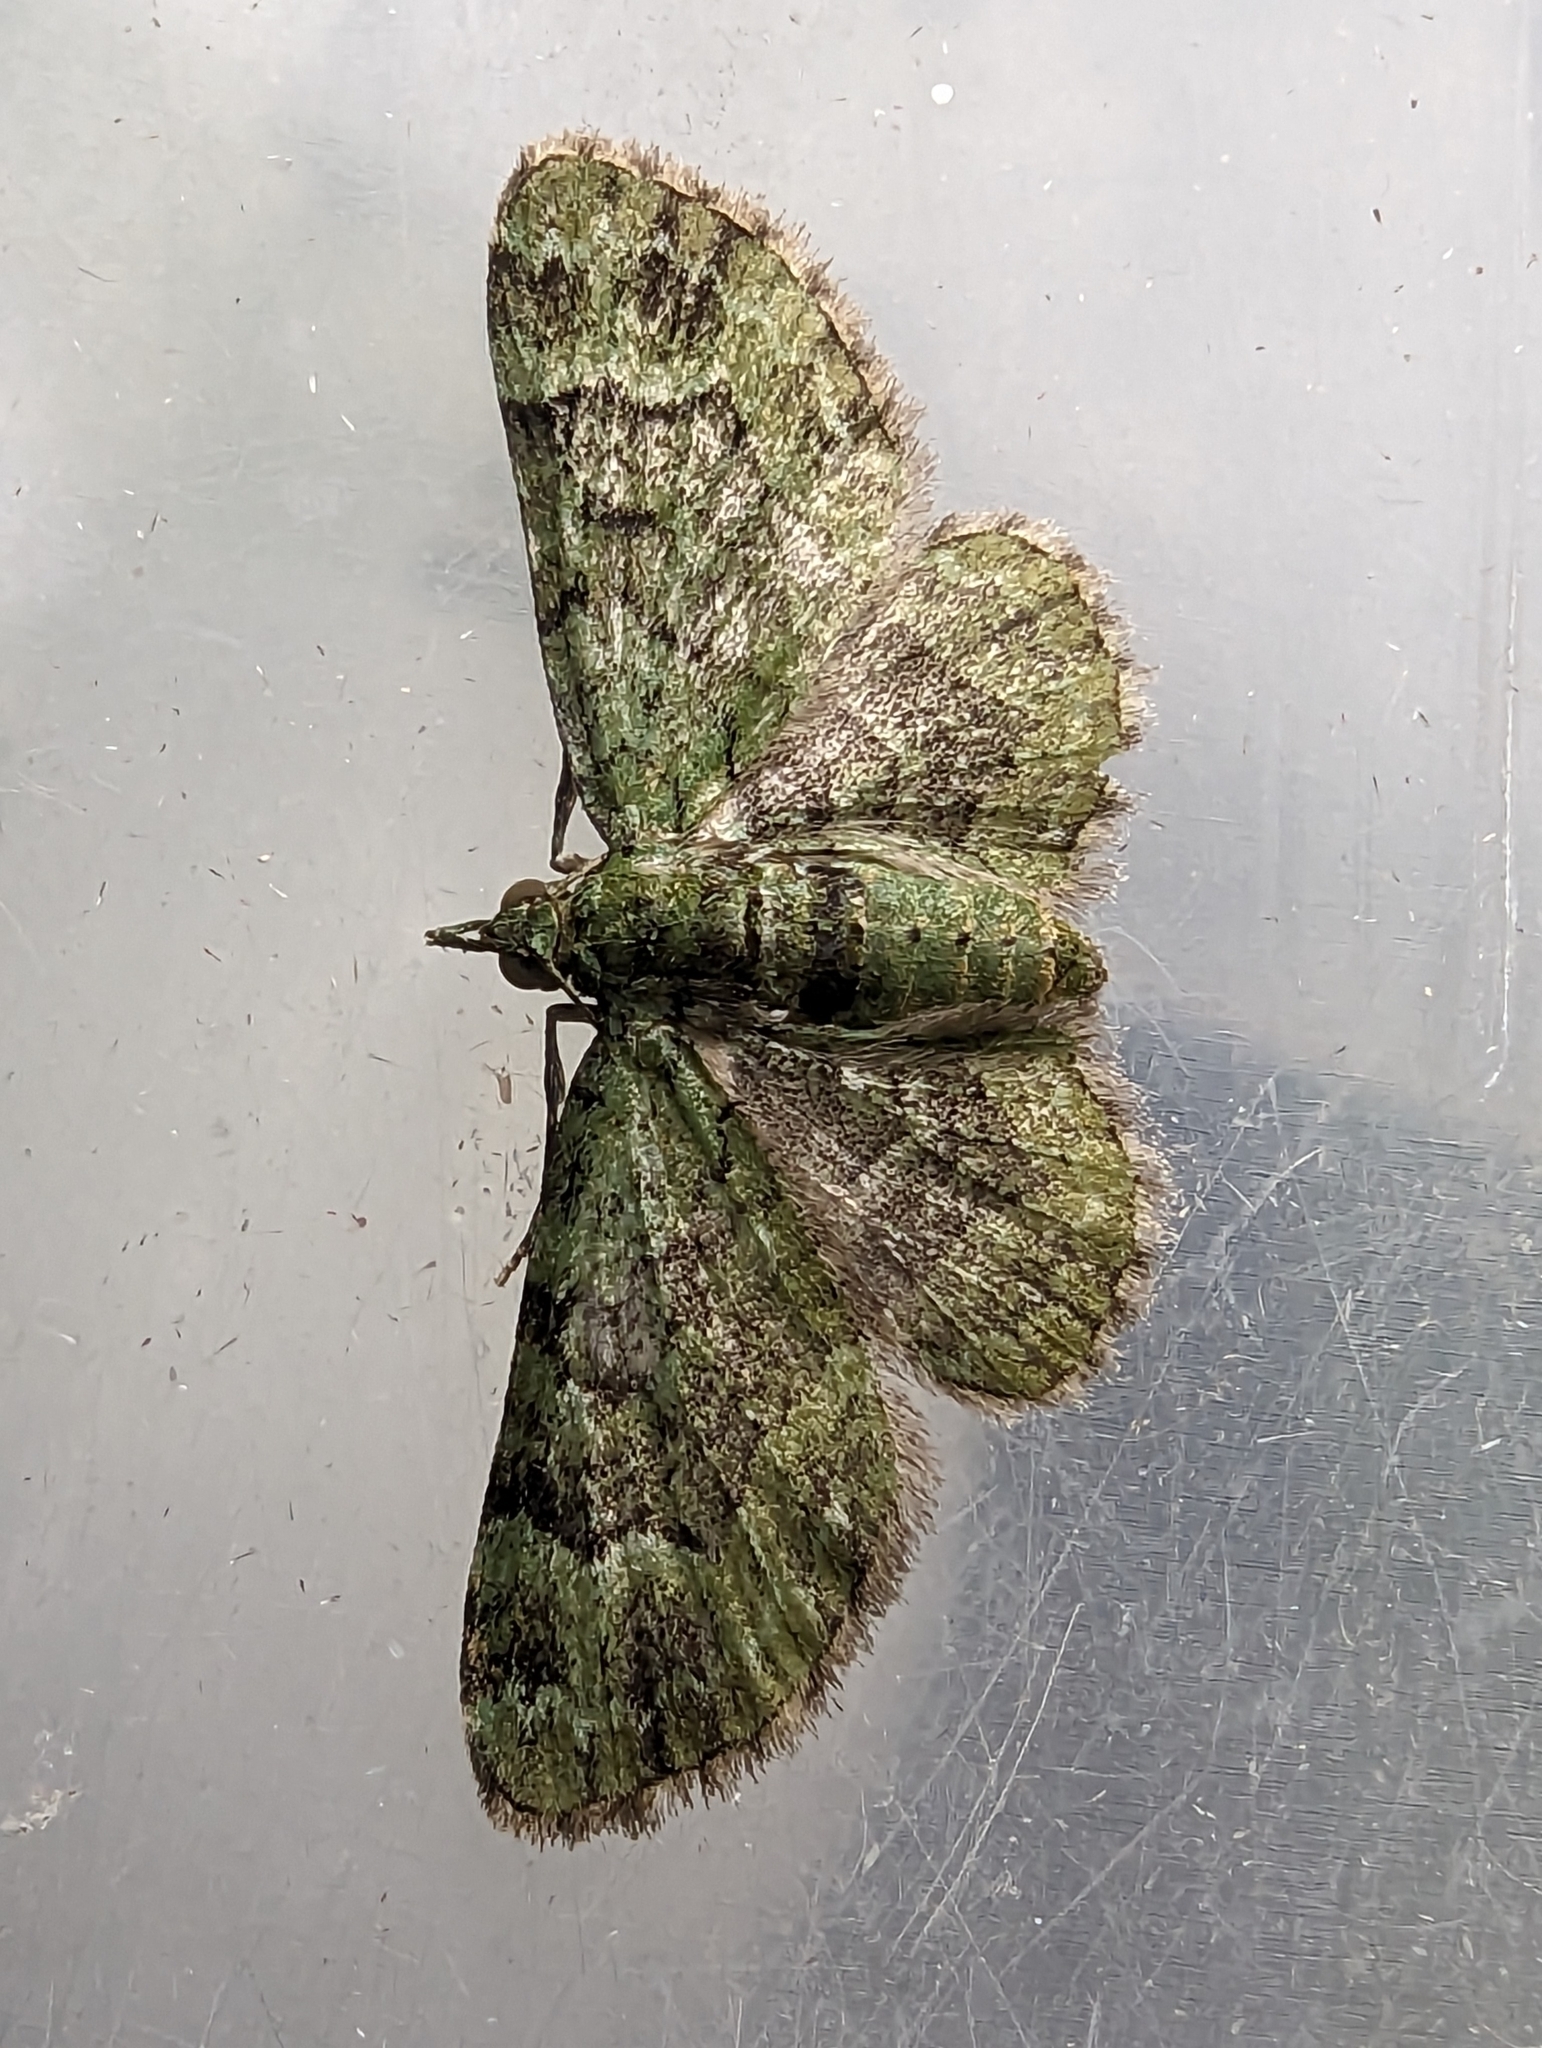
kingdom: Animalia
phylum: Arthropoda
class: Insecta
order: Lepidoptera
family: Geometridae
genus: Pasiphila
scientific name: Pasiphila rectangulata
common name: Green pug
